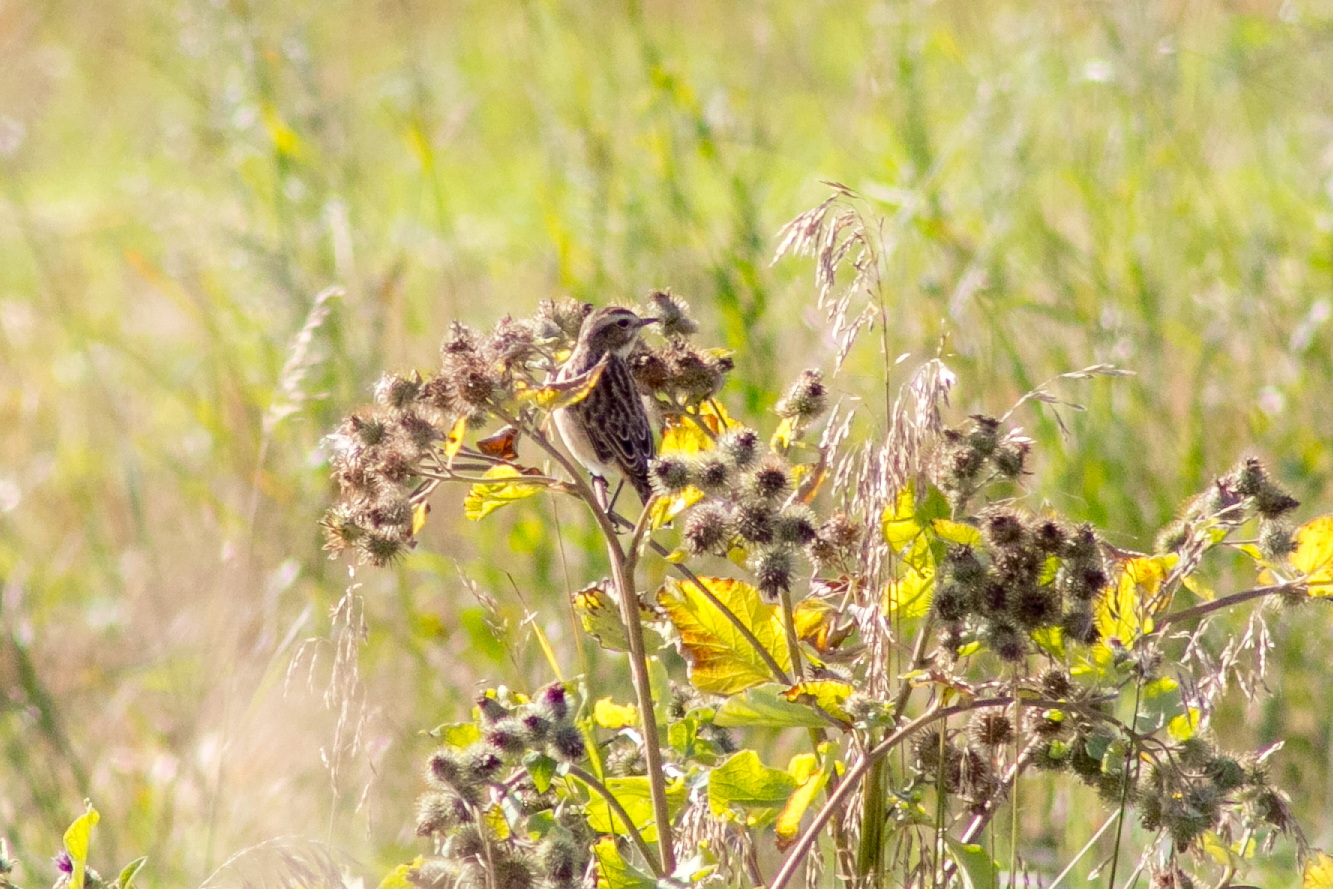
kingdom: Animalia
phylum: Chordata
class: Aves
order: Passeriformes
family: Muscicapidae
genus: Saxicola
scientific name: Saxicola rubetra
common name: Whinchat
